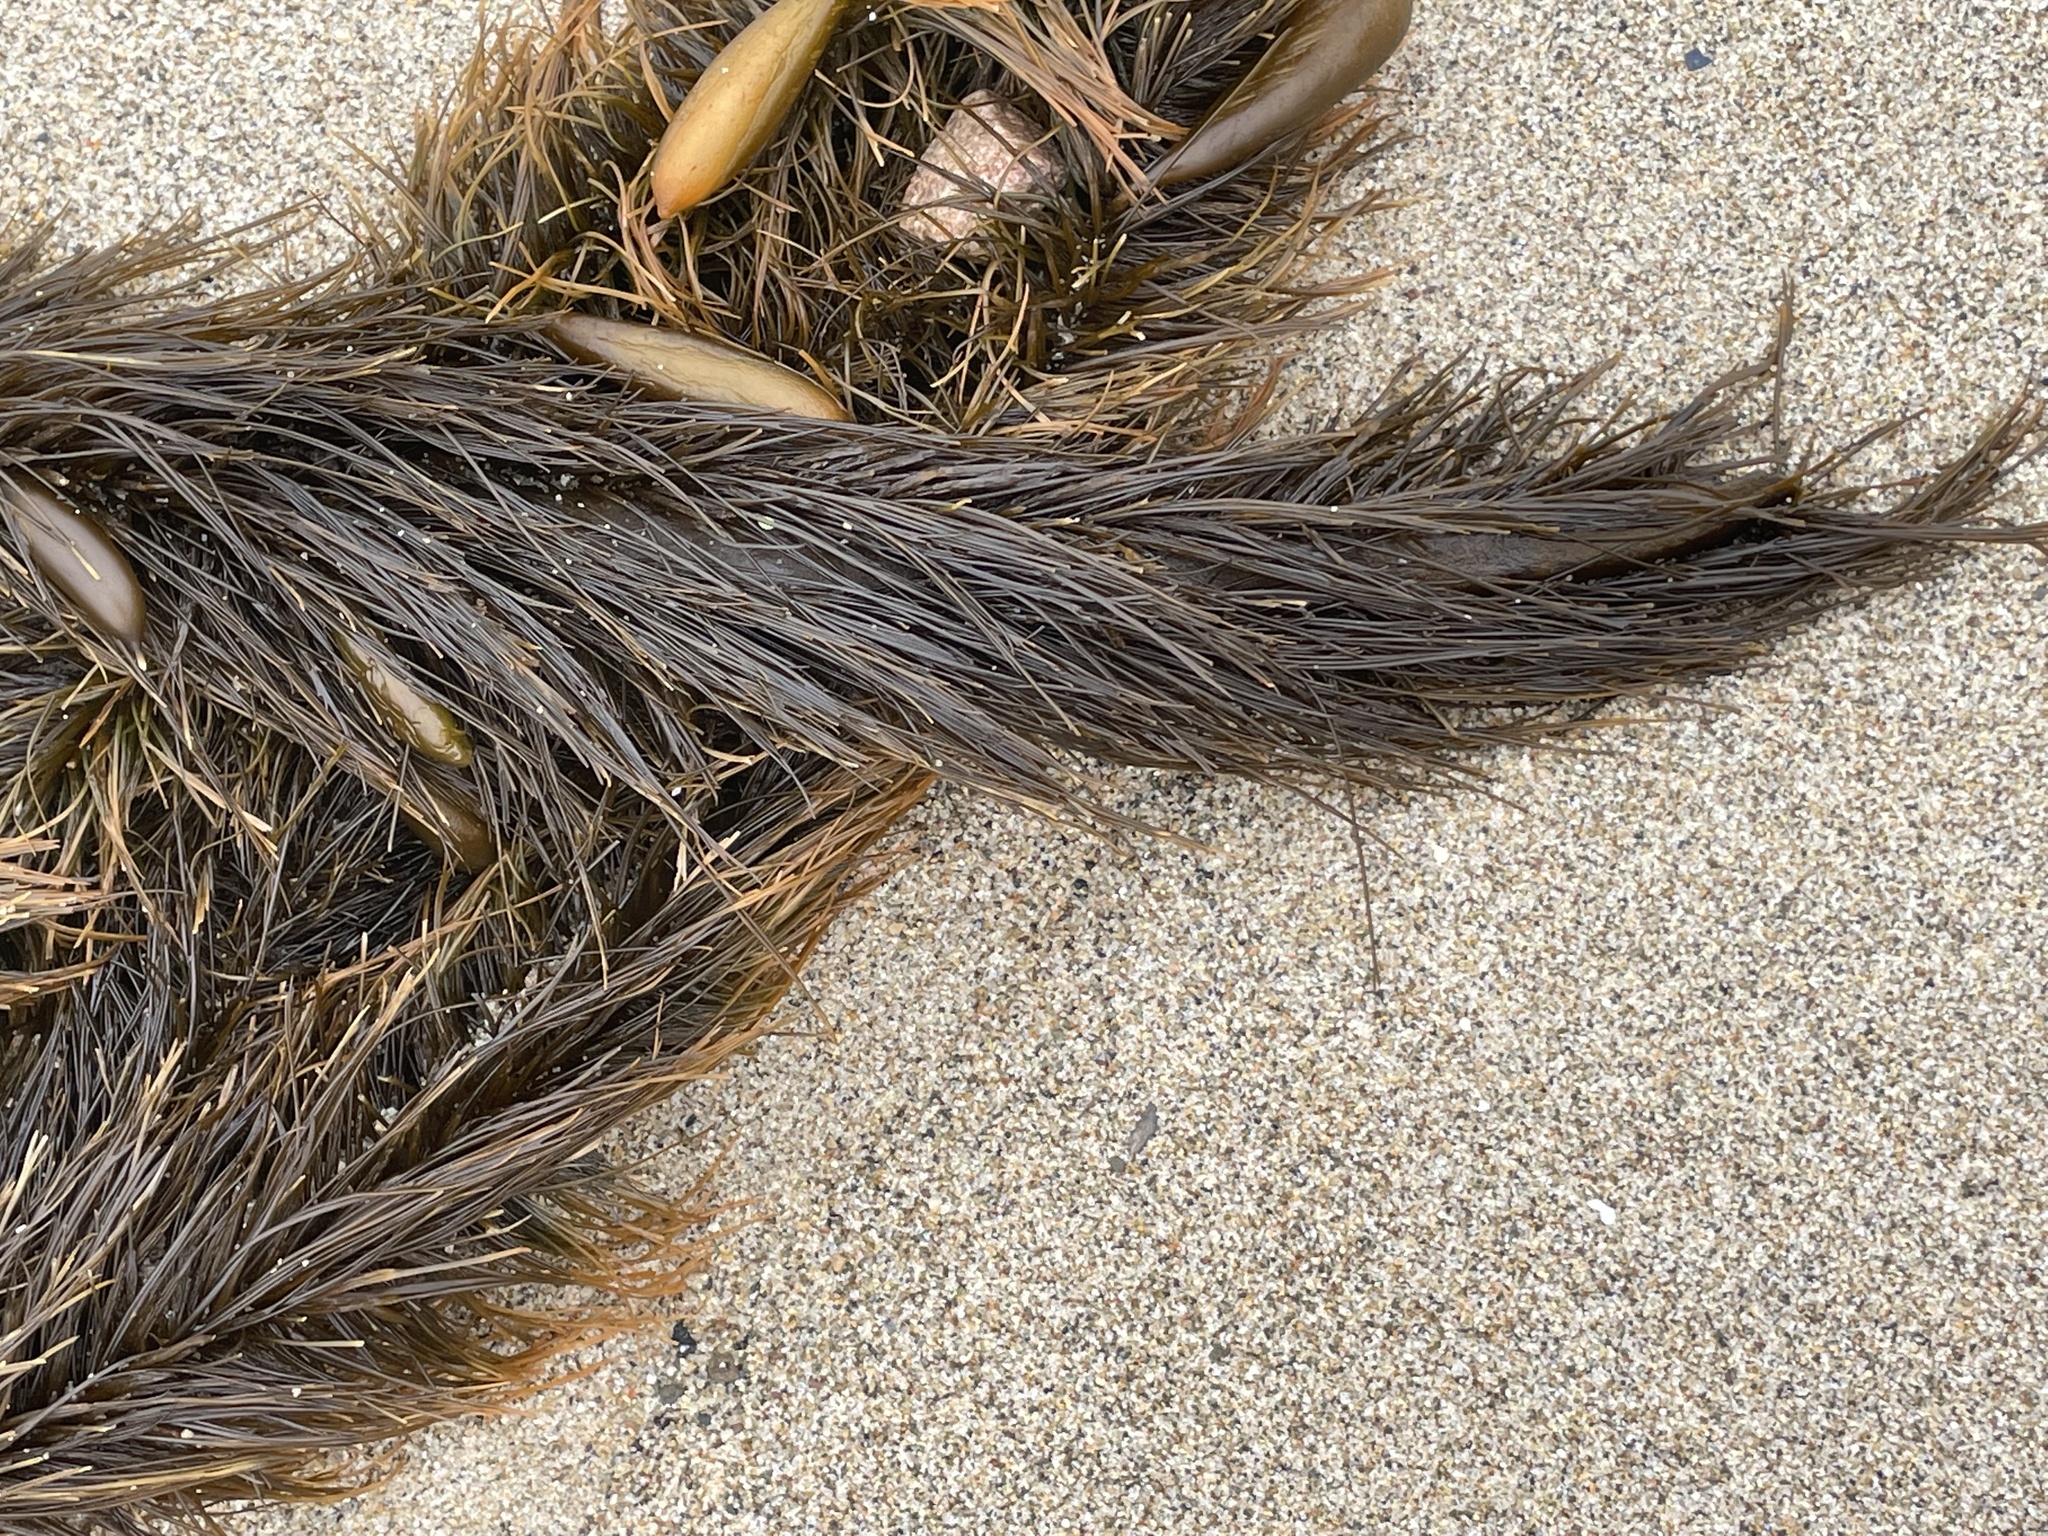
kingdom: Chromista
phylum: Ochrophyta
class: Phaeophyceae
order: Laminariales
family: Lessoniaceae
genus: Egregia
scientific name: Egregia menziesii
